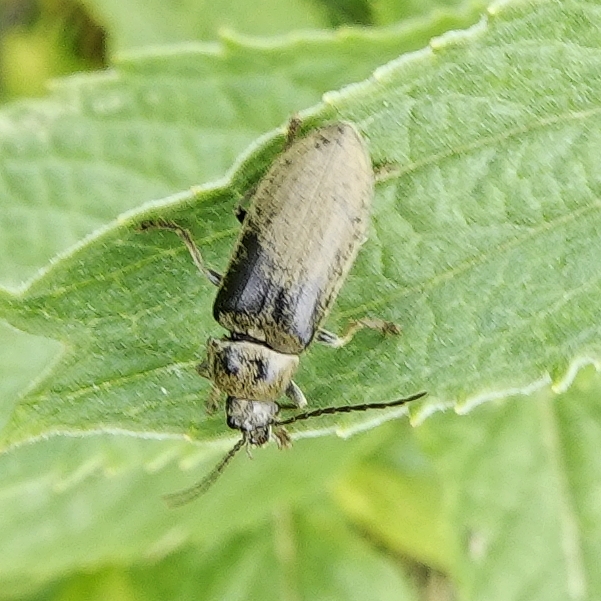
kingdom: Animalia
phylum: Arthropoda
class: Insecta
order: Coleoptera
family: Dascillidae
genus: Dascillus
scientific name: Dascillus cervinus
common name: Orchid beetle
